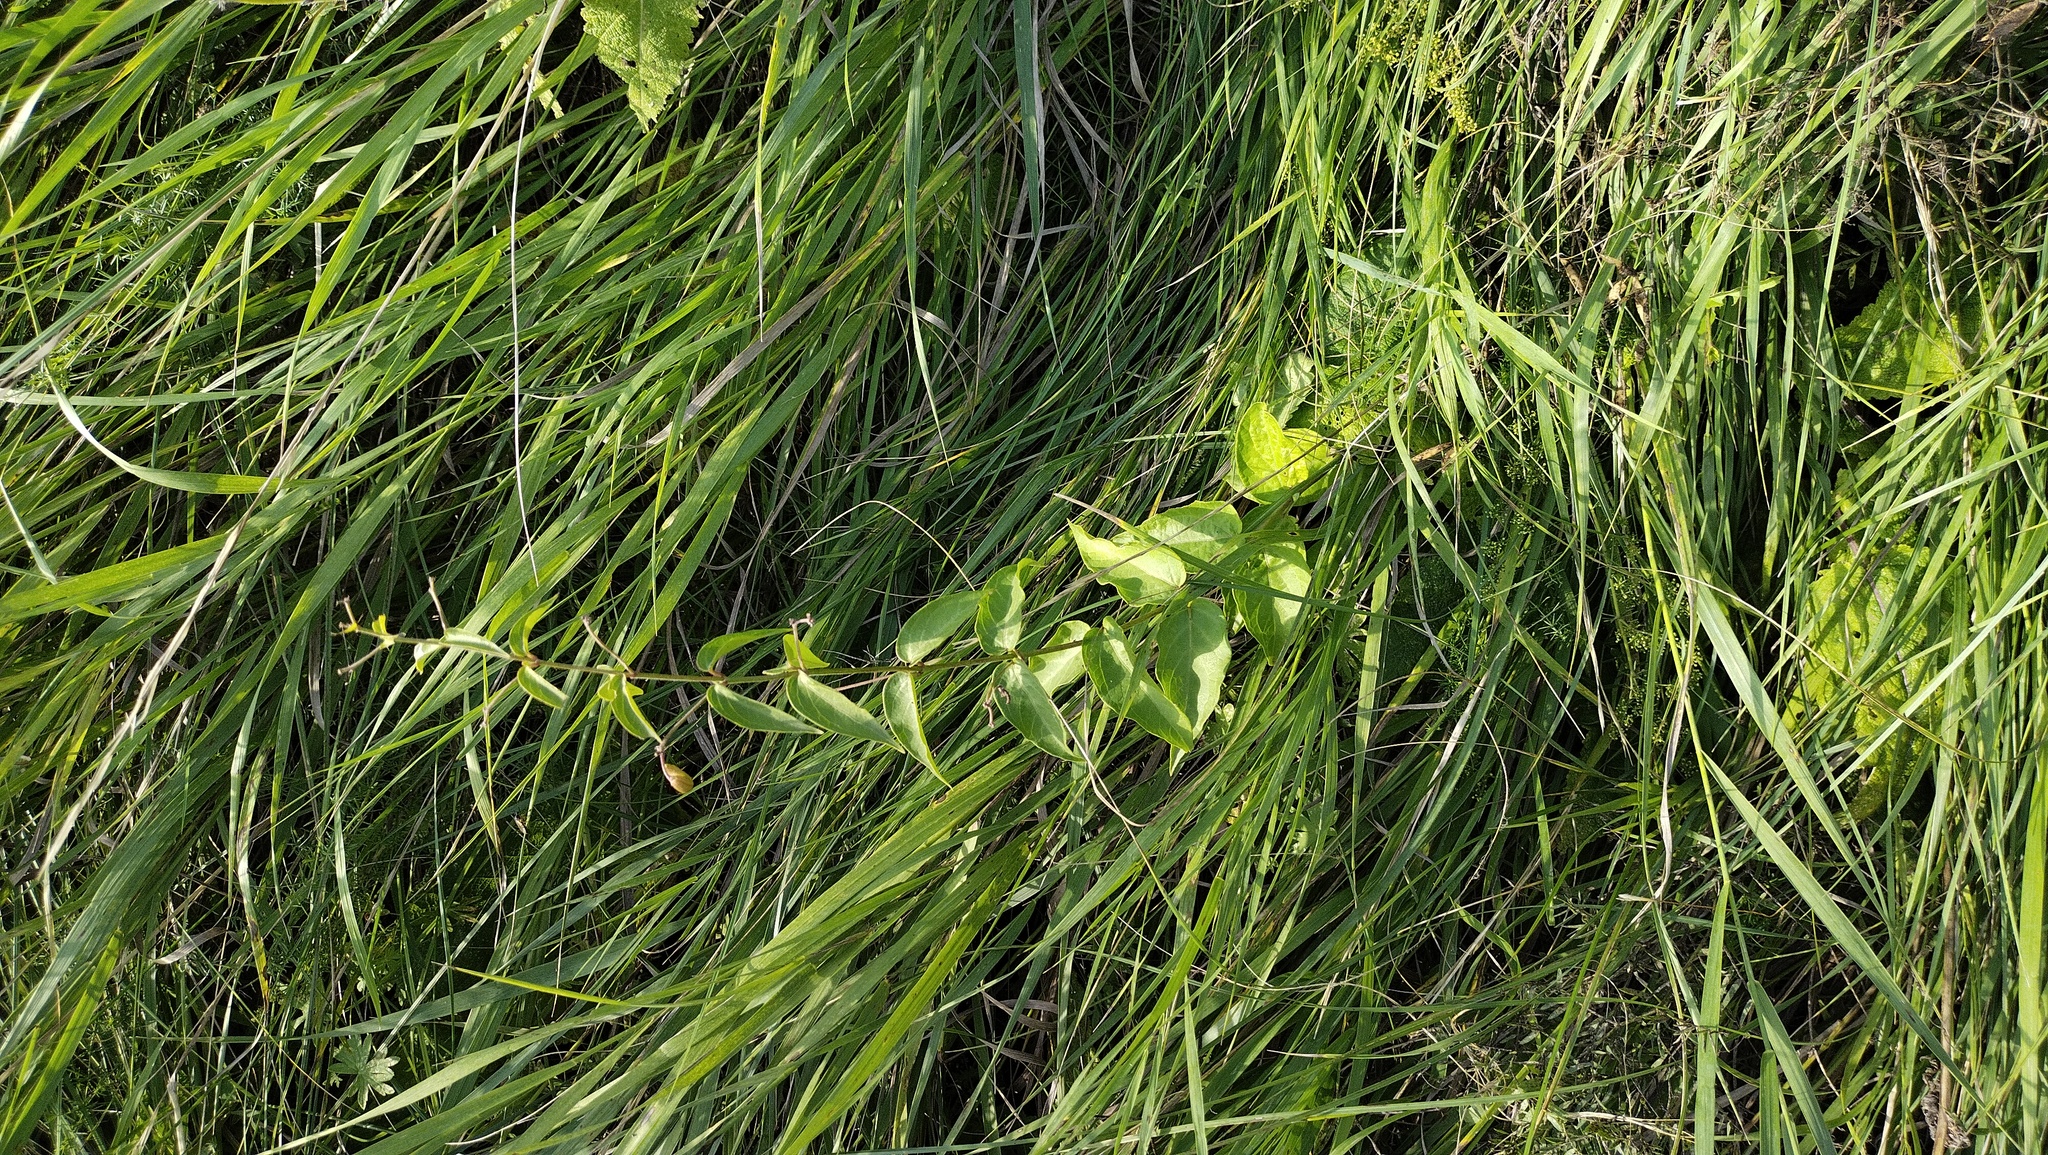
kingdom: Plantae
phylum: Tracheophyta
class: Magnoliopsida
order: Gentianales
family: Apocynaceae
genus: Vincetoxicum
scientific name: Vincetoxicum hirundinaria
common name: White swallowwort
